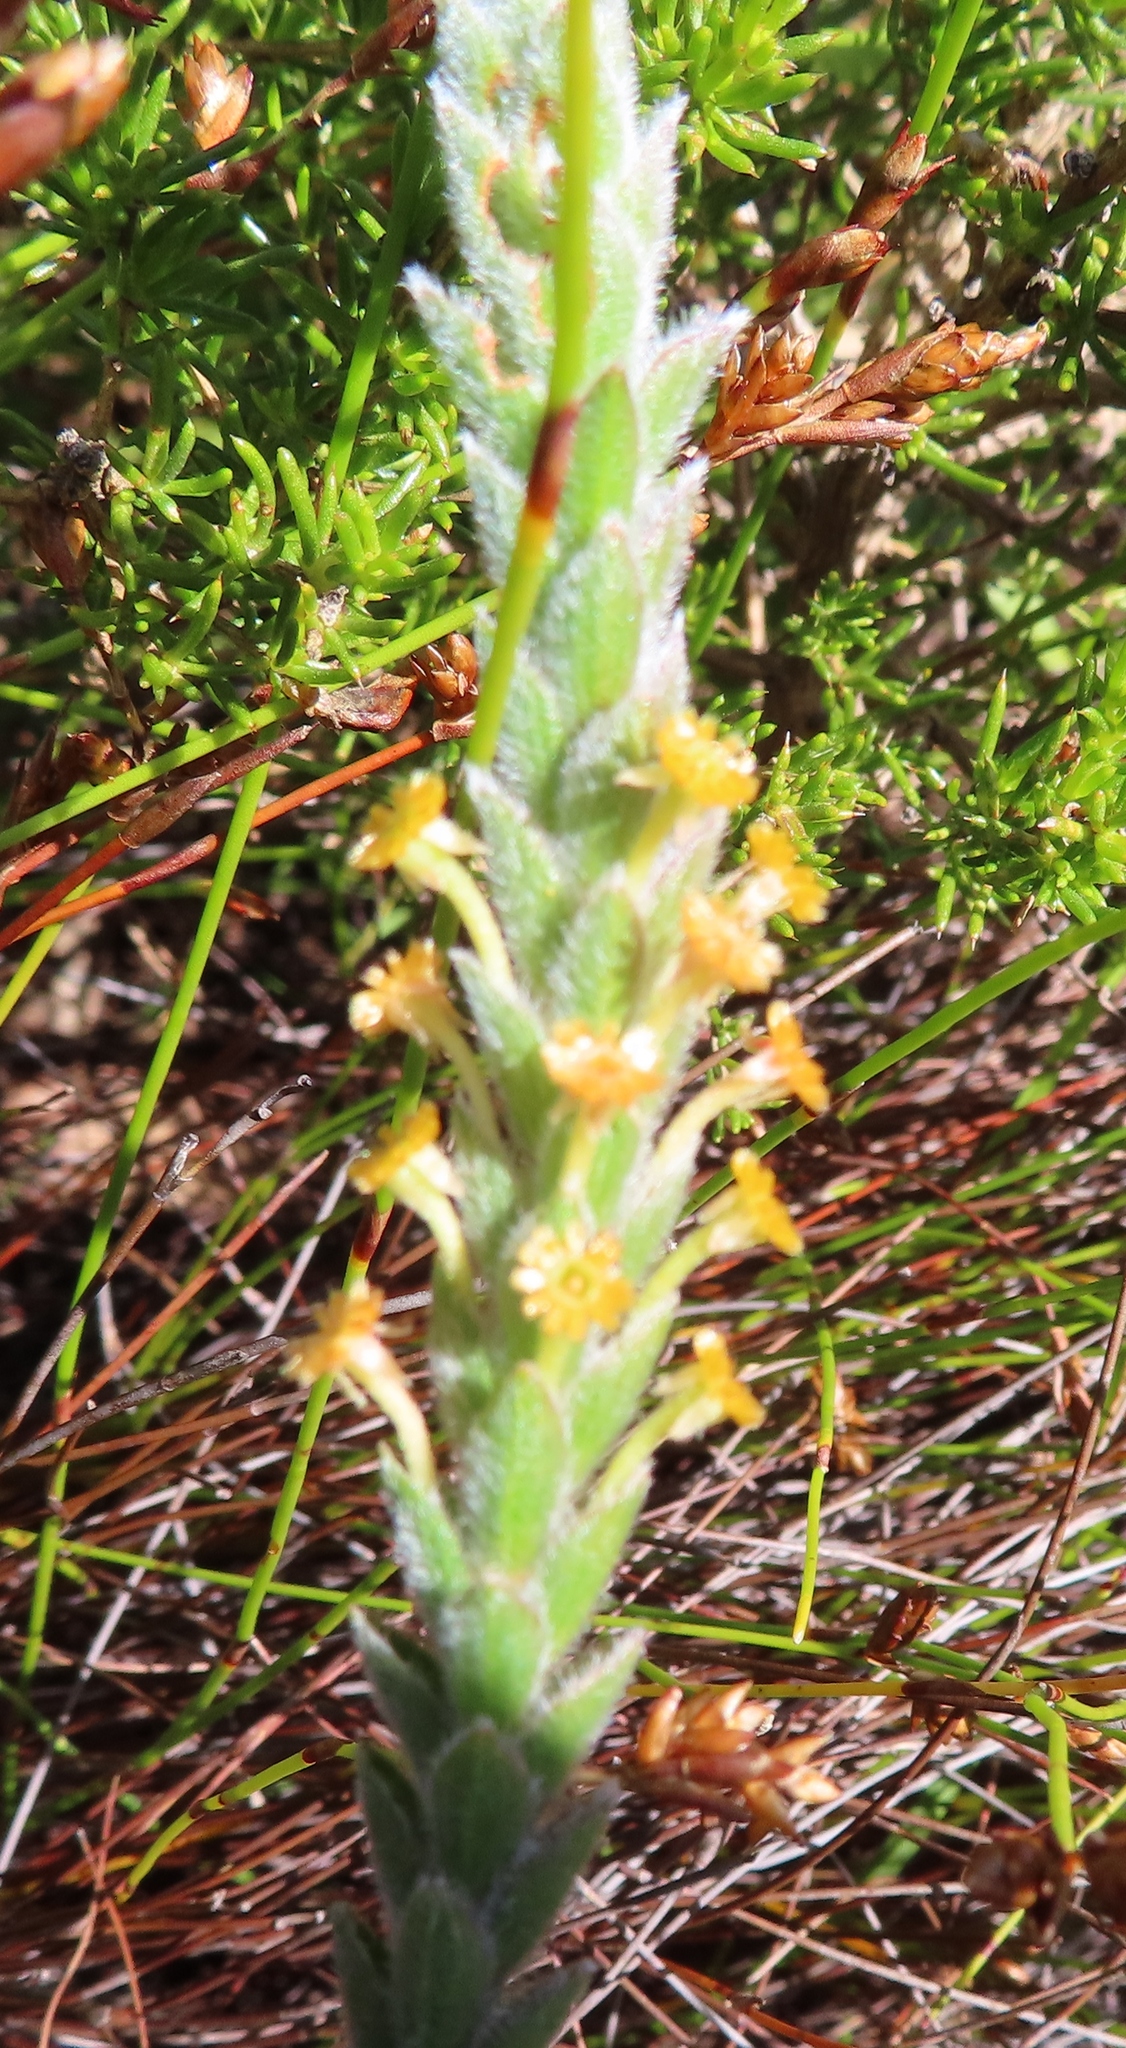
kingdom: Plantae
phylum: Tracheophyta
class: Magnoliopsida
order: Malvales
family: Thymelaeaceae
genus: Struthiola
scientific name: Struthiola tomentosa
